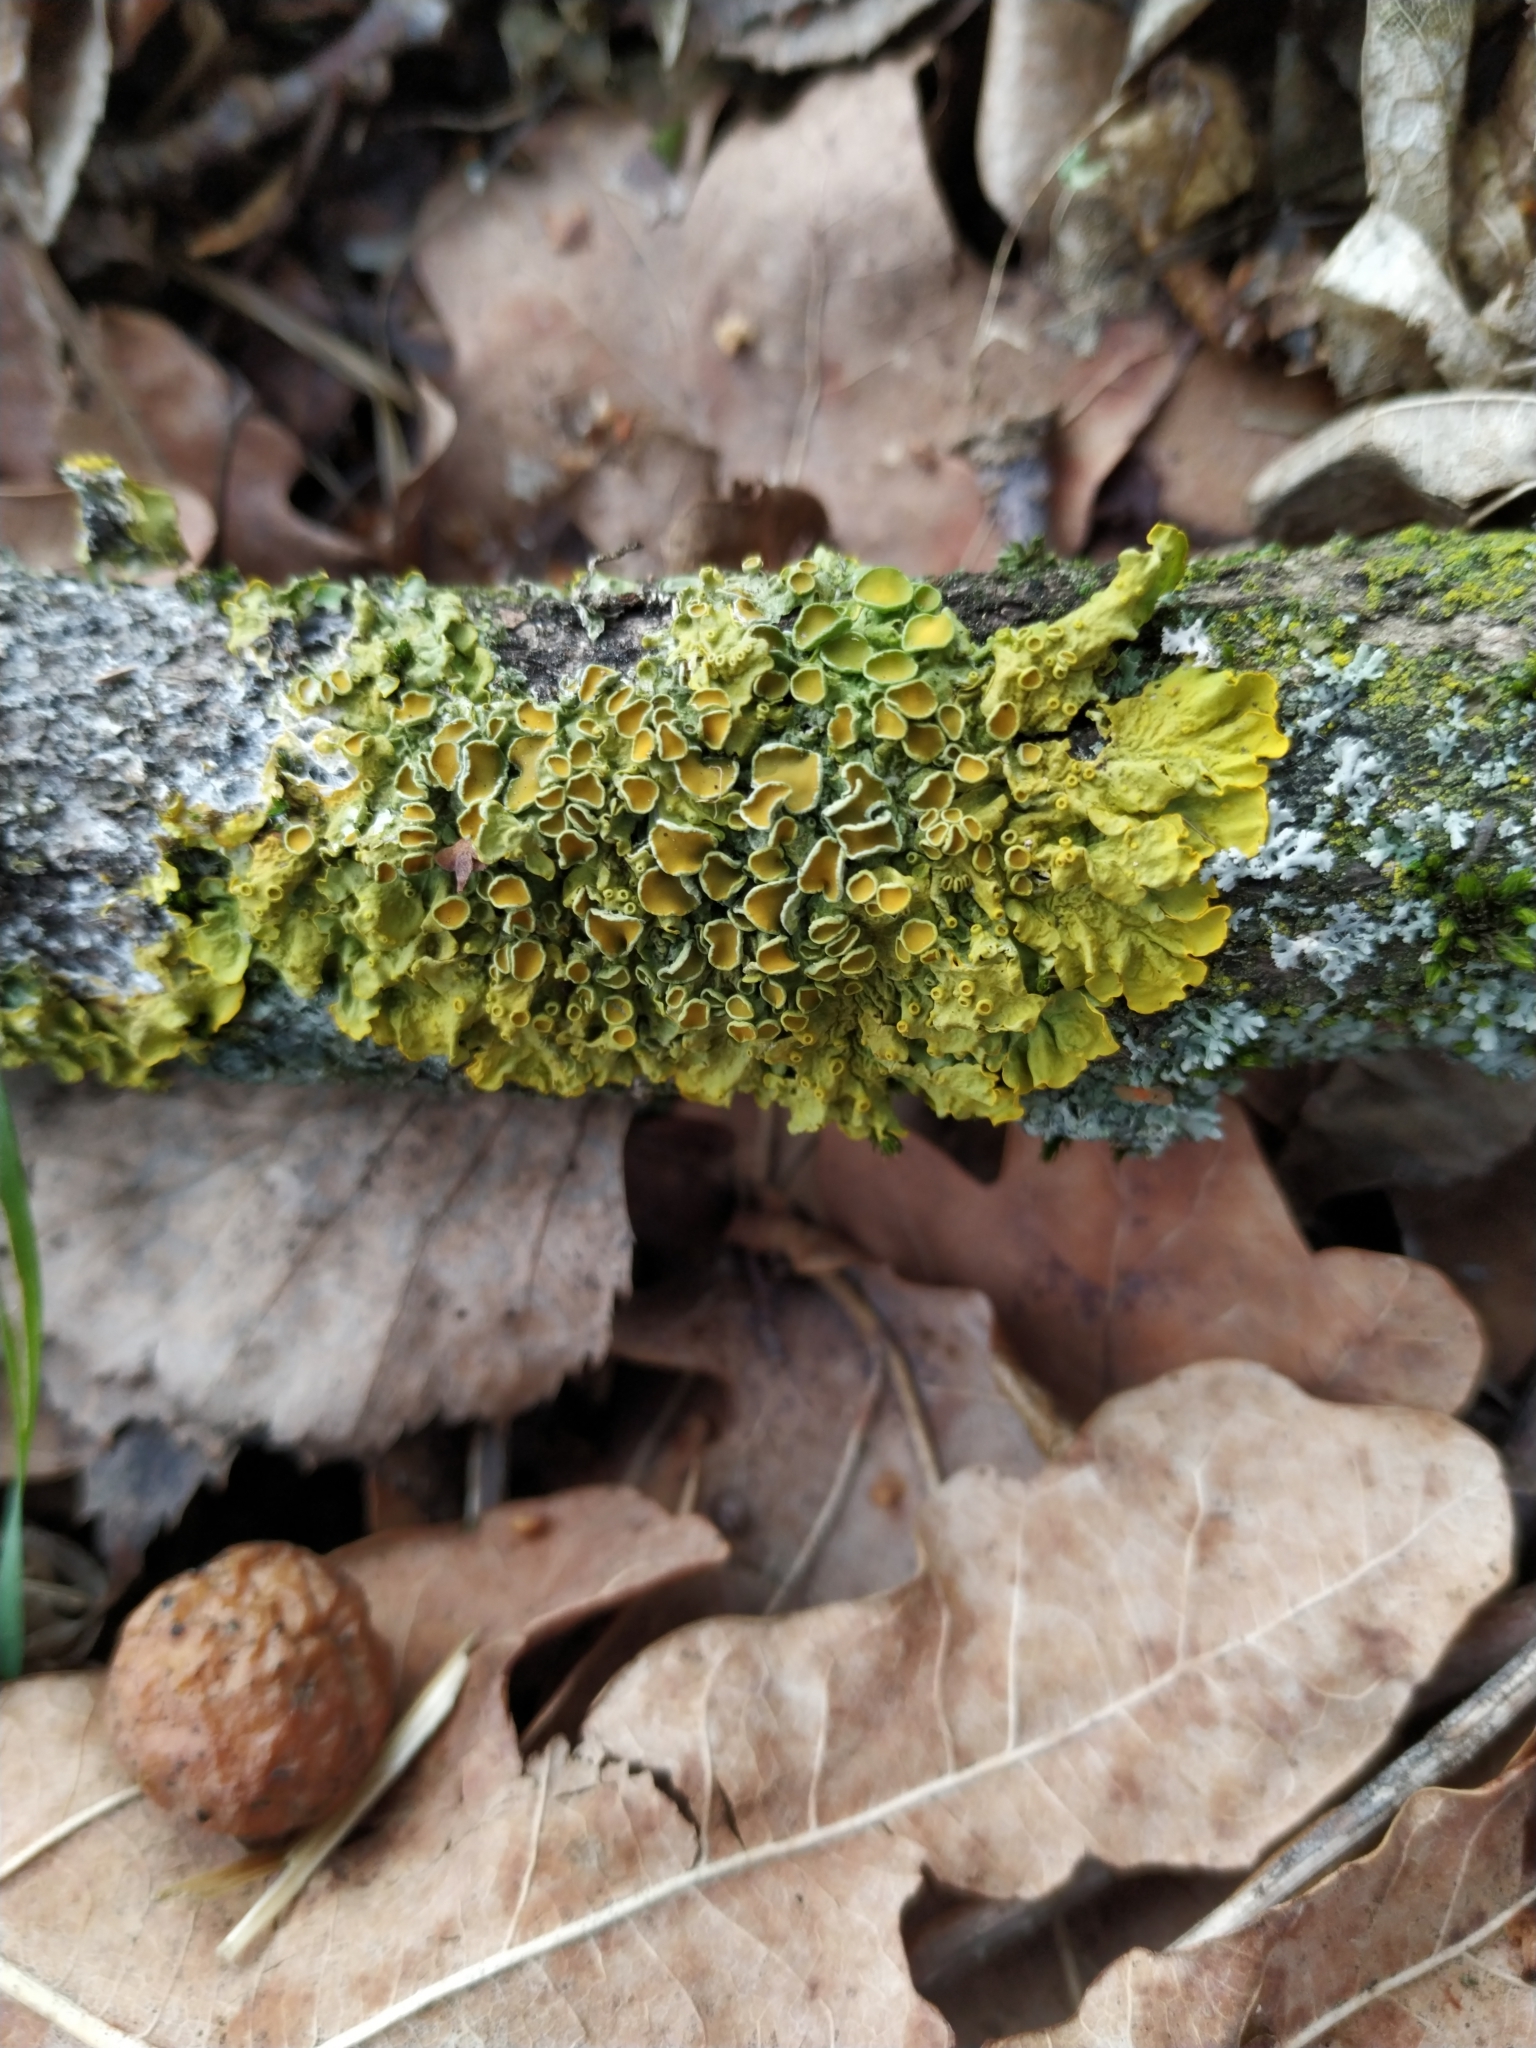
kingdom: Fungi
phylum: Ascomycota
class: Lecanoromycetes
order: Teloschistales
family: Teloschistaceae
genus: Xanthoria
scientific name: Xanthoria parietina
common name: Common orange lichen
